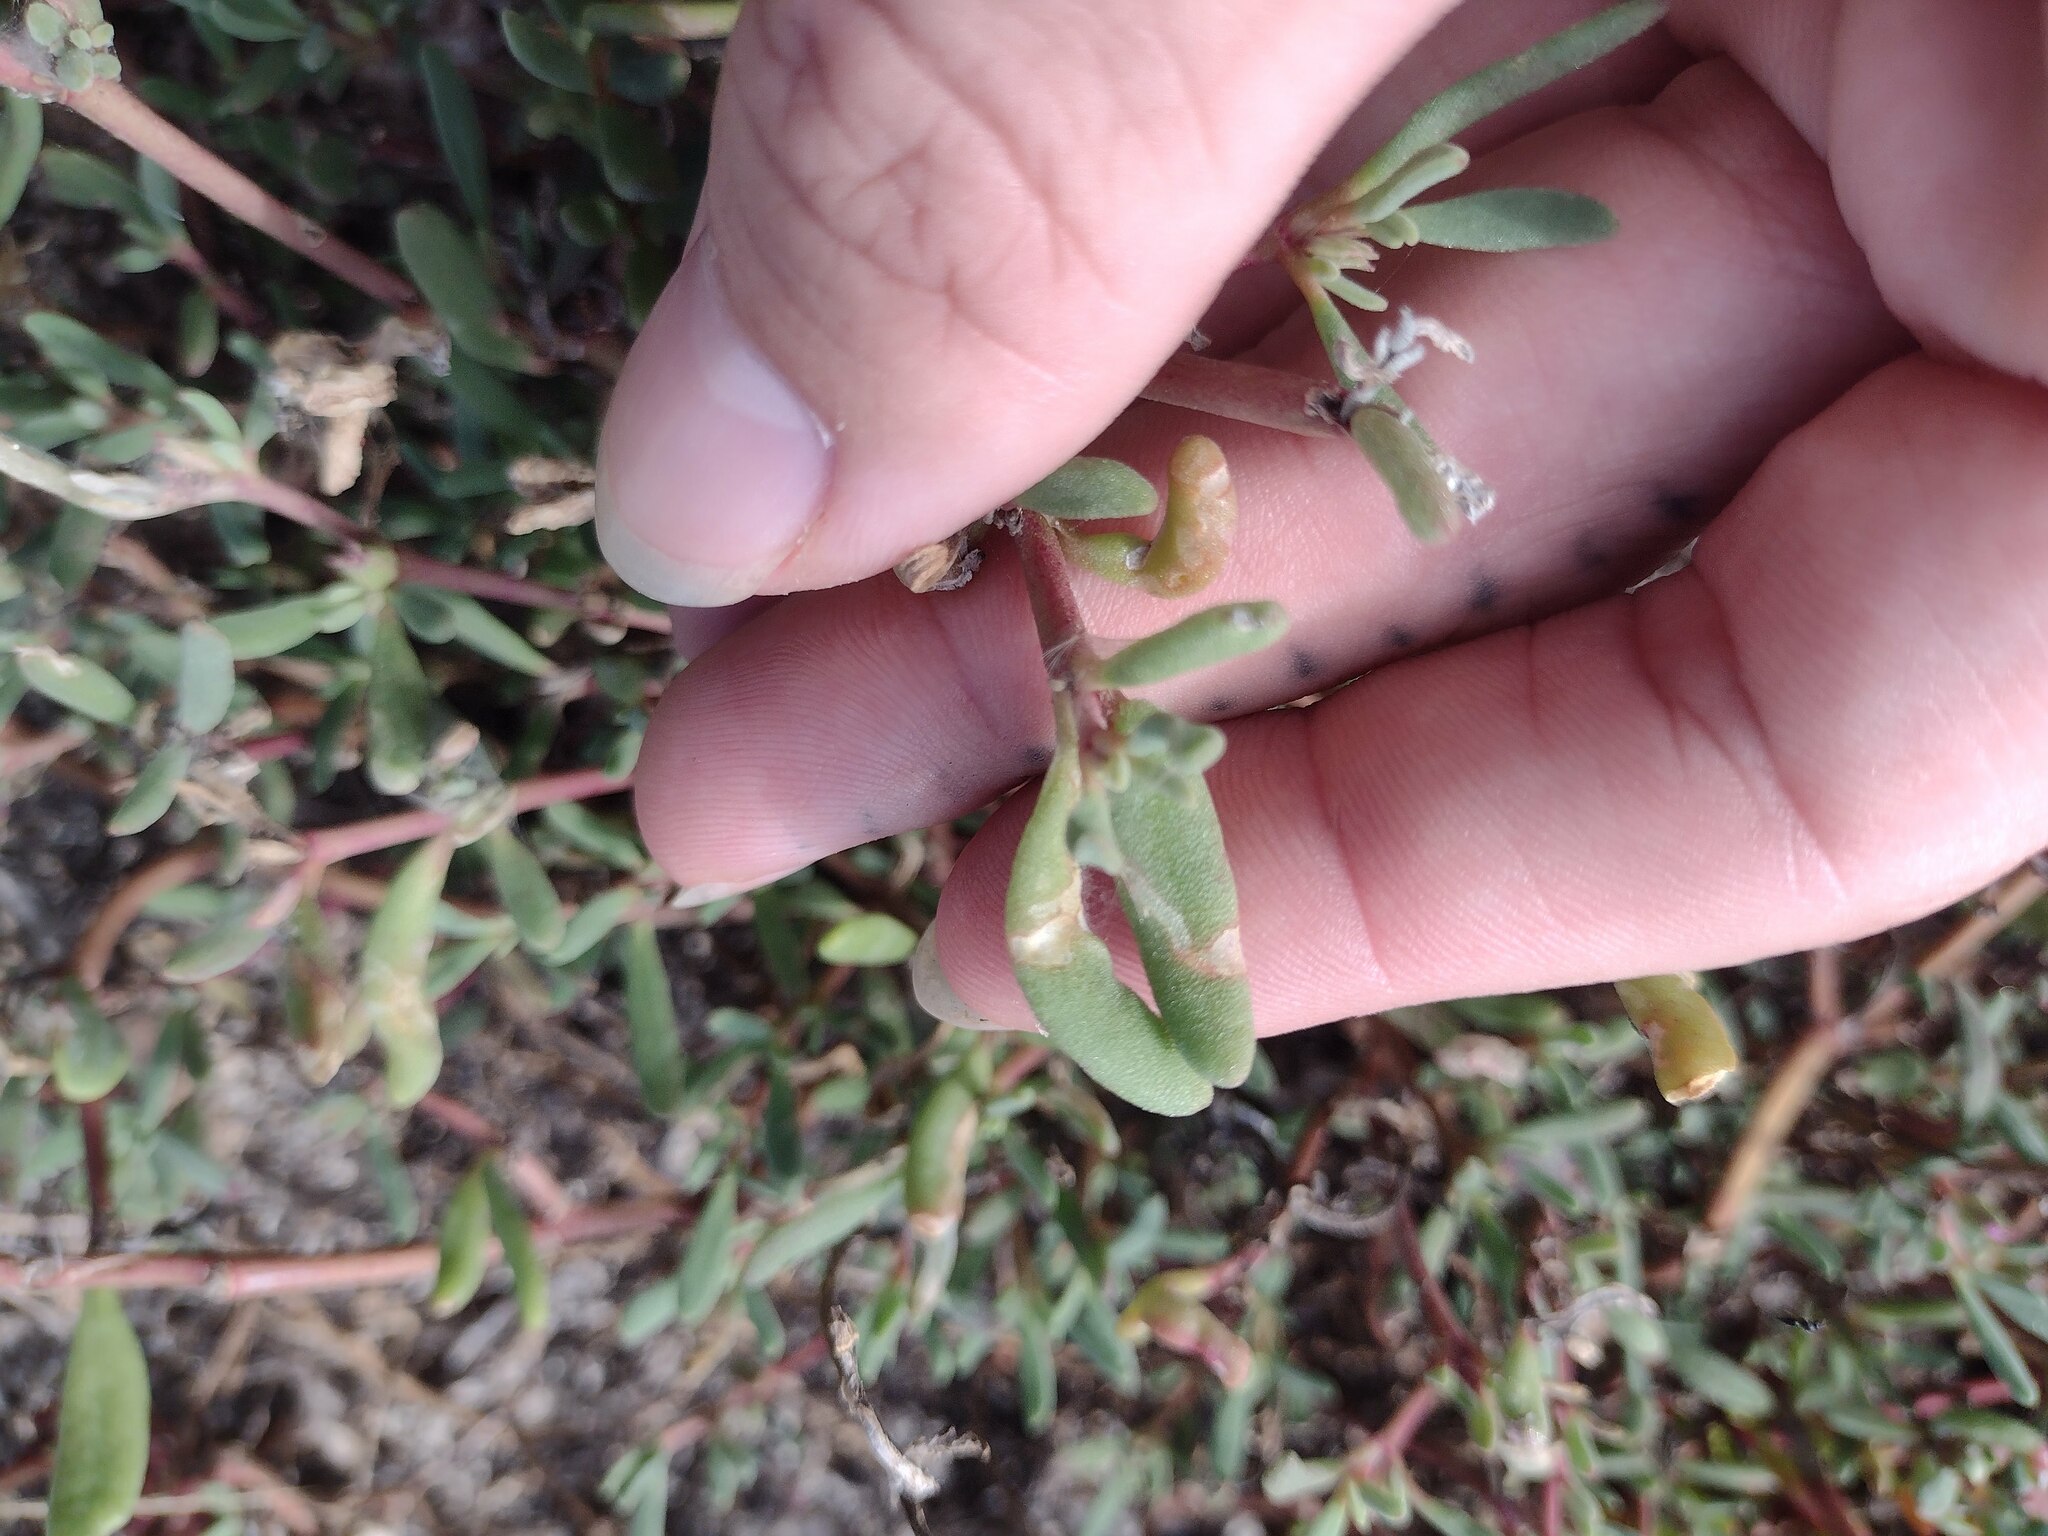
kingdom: Animalia
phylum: Arthropoda
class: Insecta
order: Lepidoptera
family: Heliodinidae
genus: Heliodines
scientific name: Heliodines
